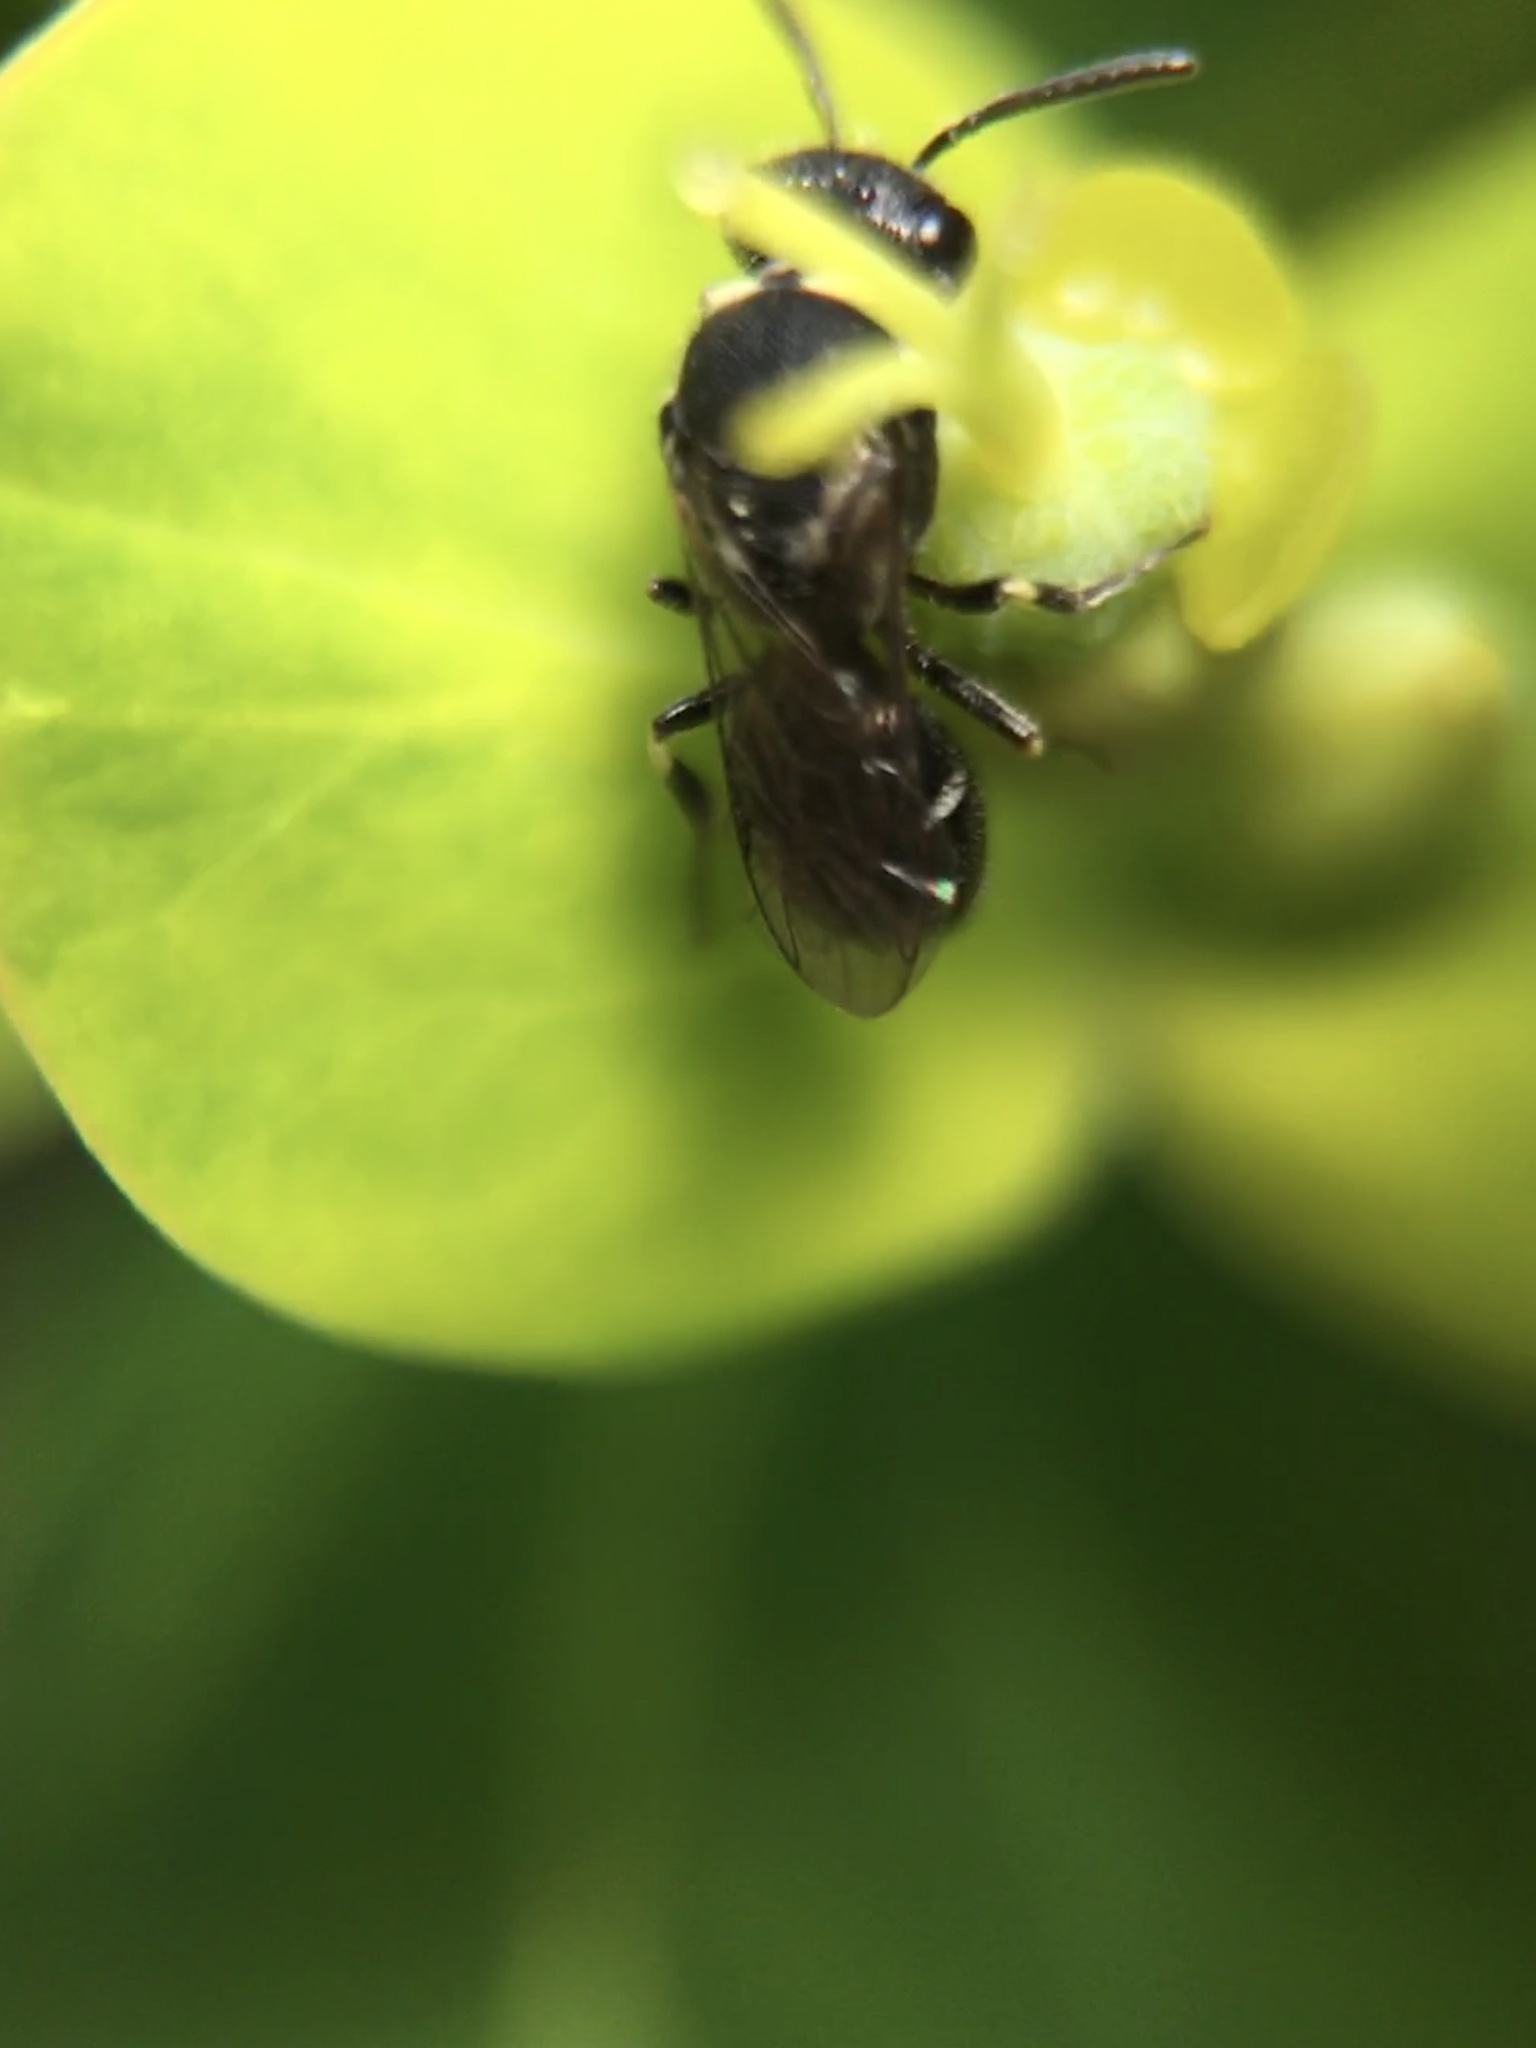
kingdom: Animalia
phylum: Arthropoda
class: Insecta
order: Hymenoptera
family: Colletidae
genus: Hylaeus
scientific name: Hylaeus
